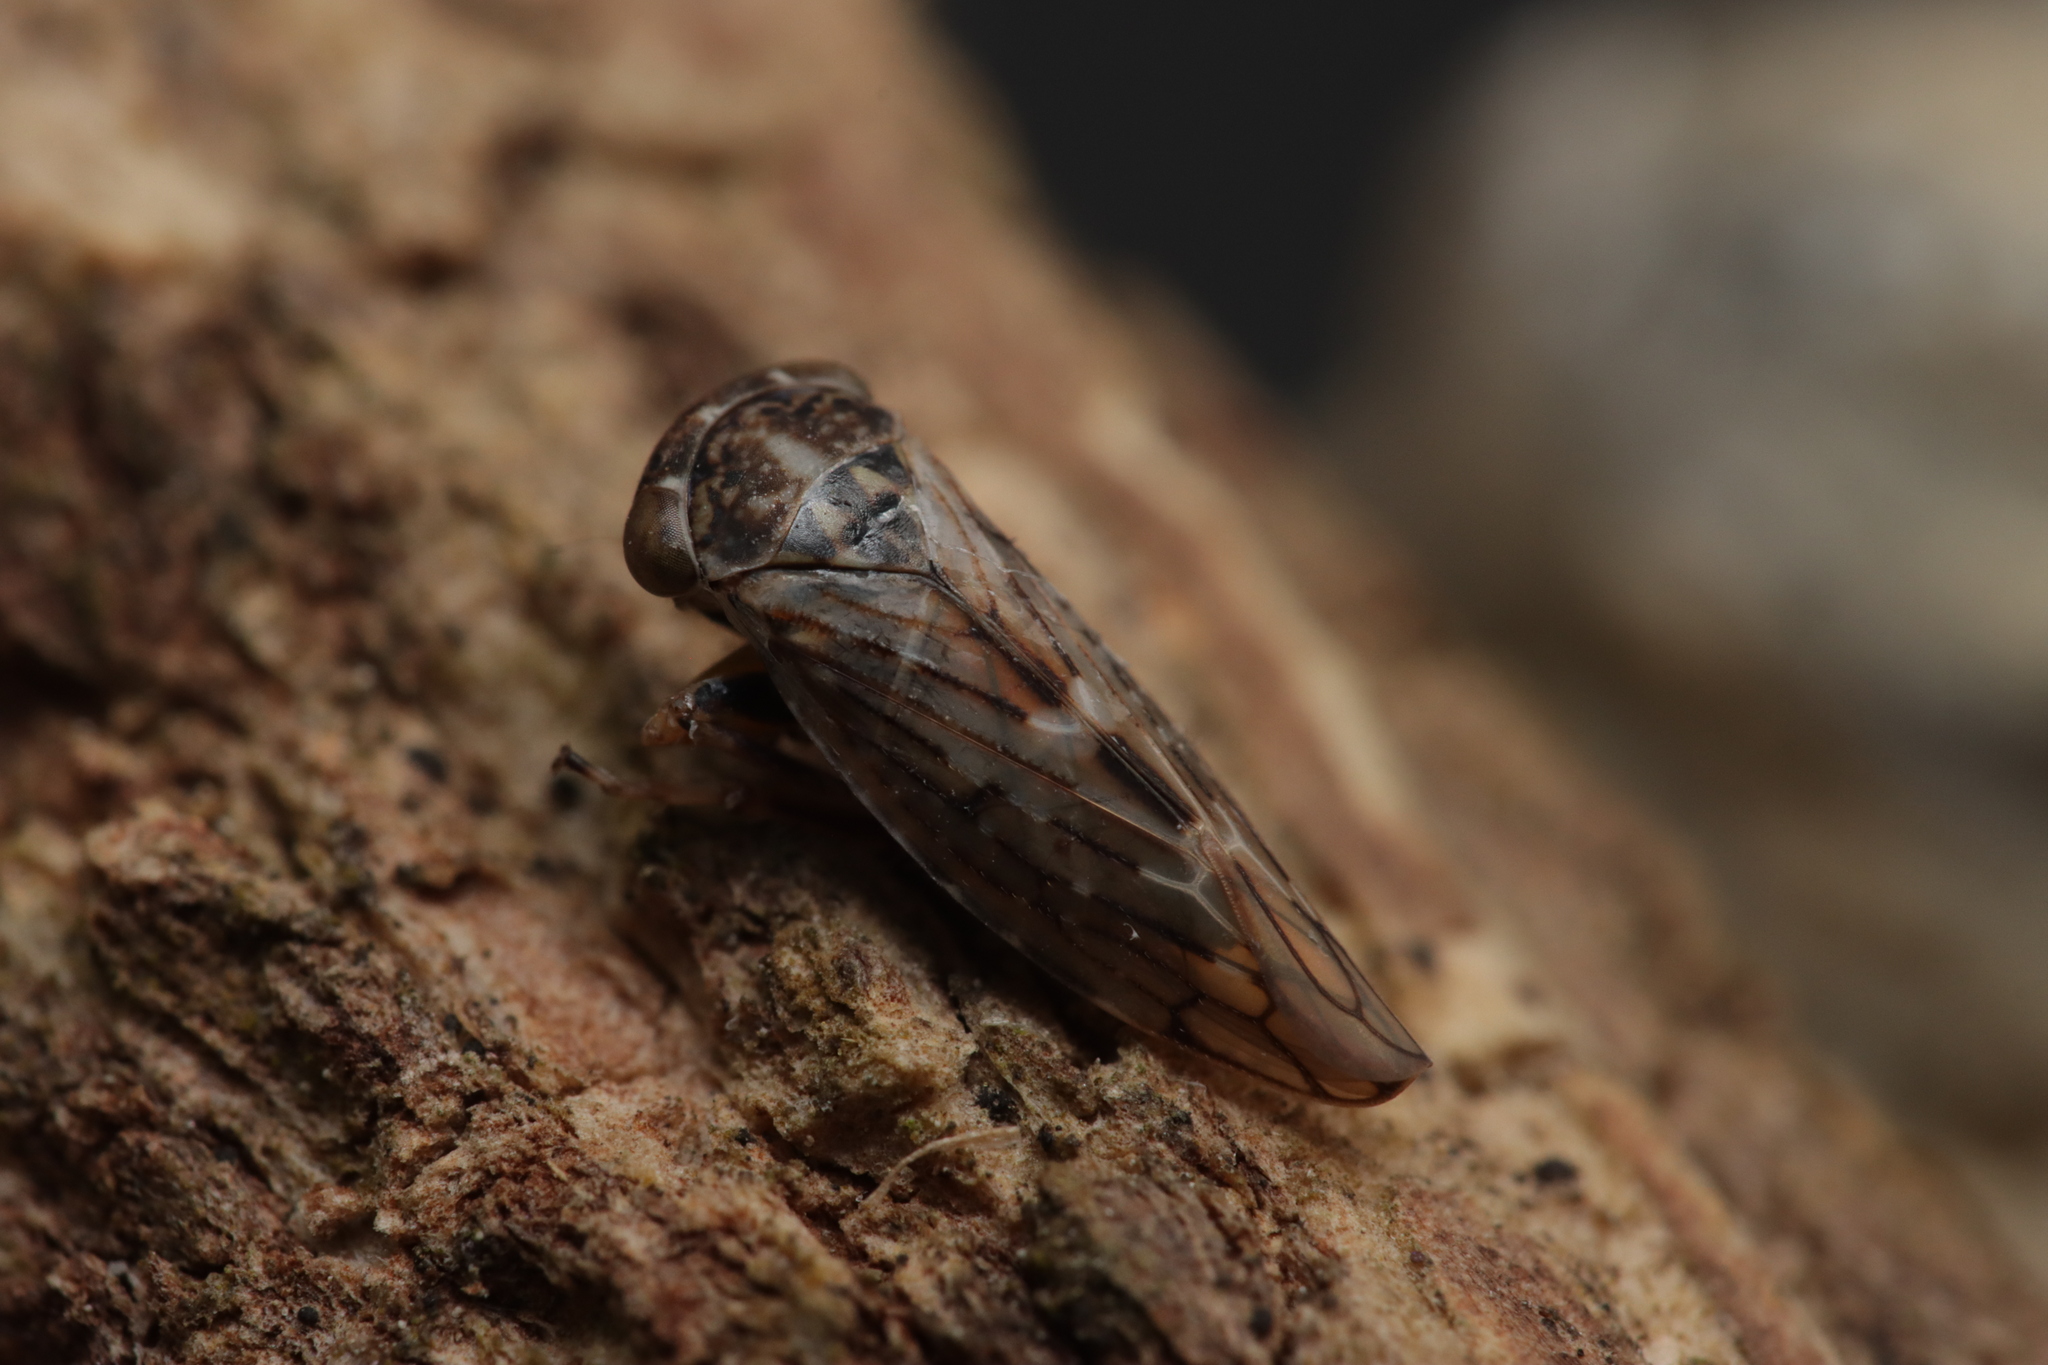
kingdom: Animalia
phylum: Arthropoda
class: Insecta
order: Hemiptera
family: Cicadellidae
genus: Idiocerus
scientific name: Idiocerus herrichii
